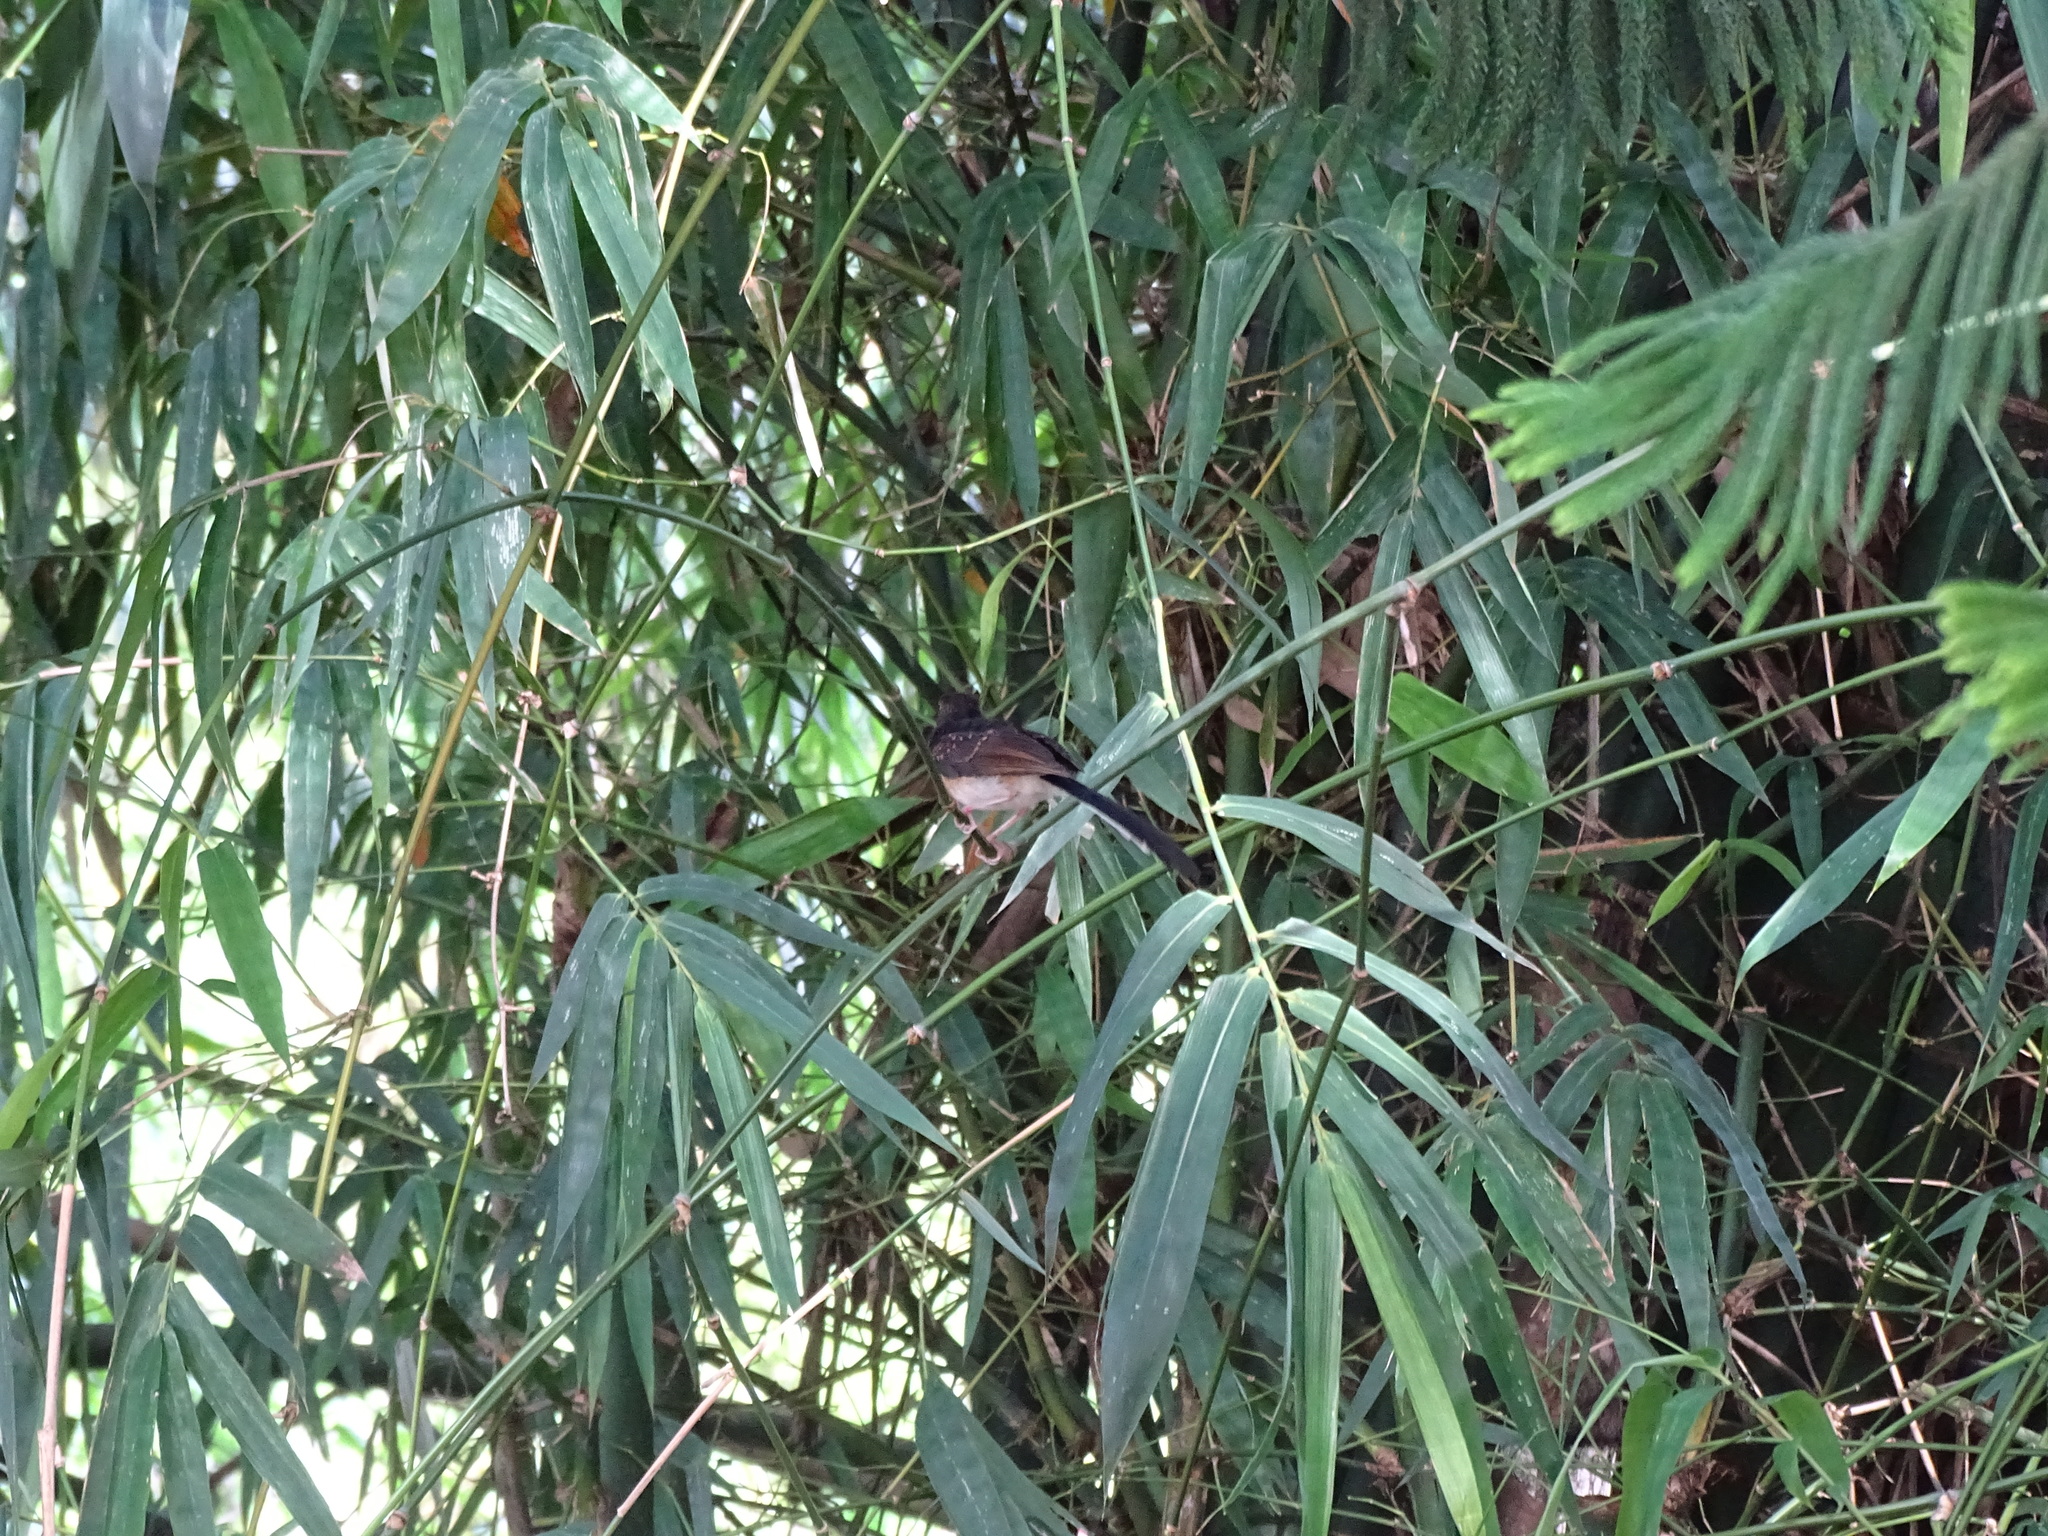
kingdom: Animalia
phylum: Chordata
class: Aves
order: Passeriformes
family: Muscicapidae
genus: Copsychus
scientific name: Copsychus malabaricus
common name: White-rumped shama
